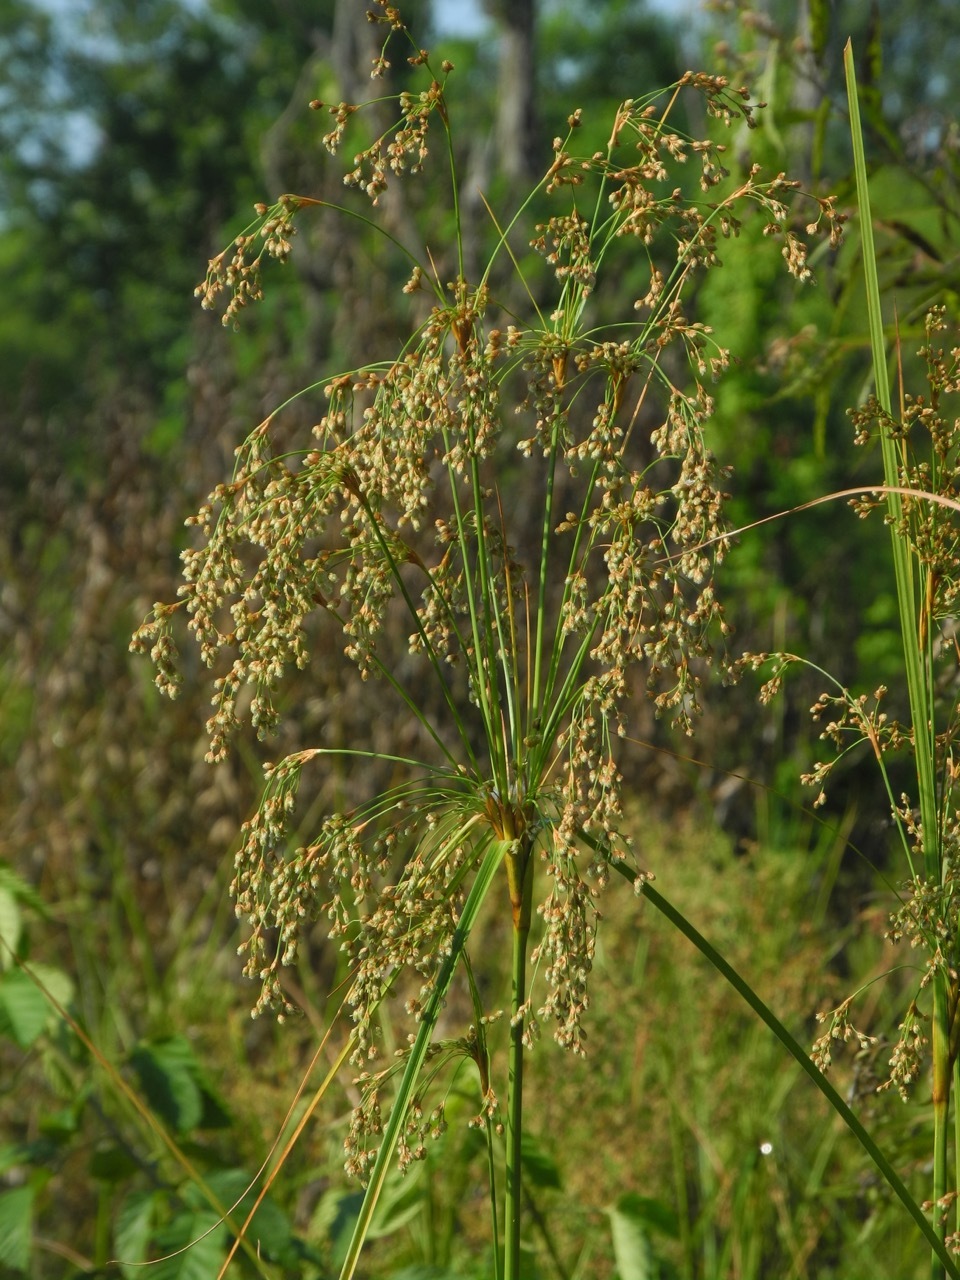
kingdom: Plantae
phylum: Tracheophyta
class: Liliopsida
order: Poales
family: Cyperaceae
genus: Scirpus
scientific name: Scirpus cyperinus
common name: Black-sheathed bulrush
